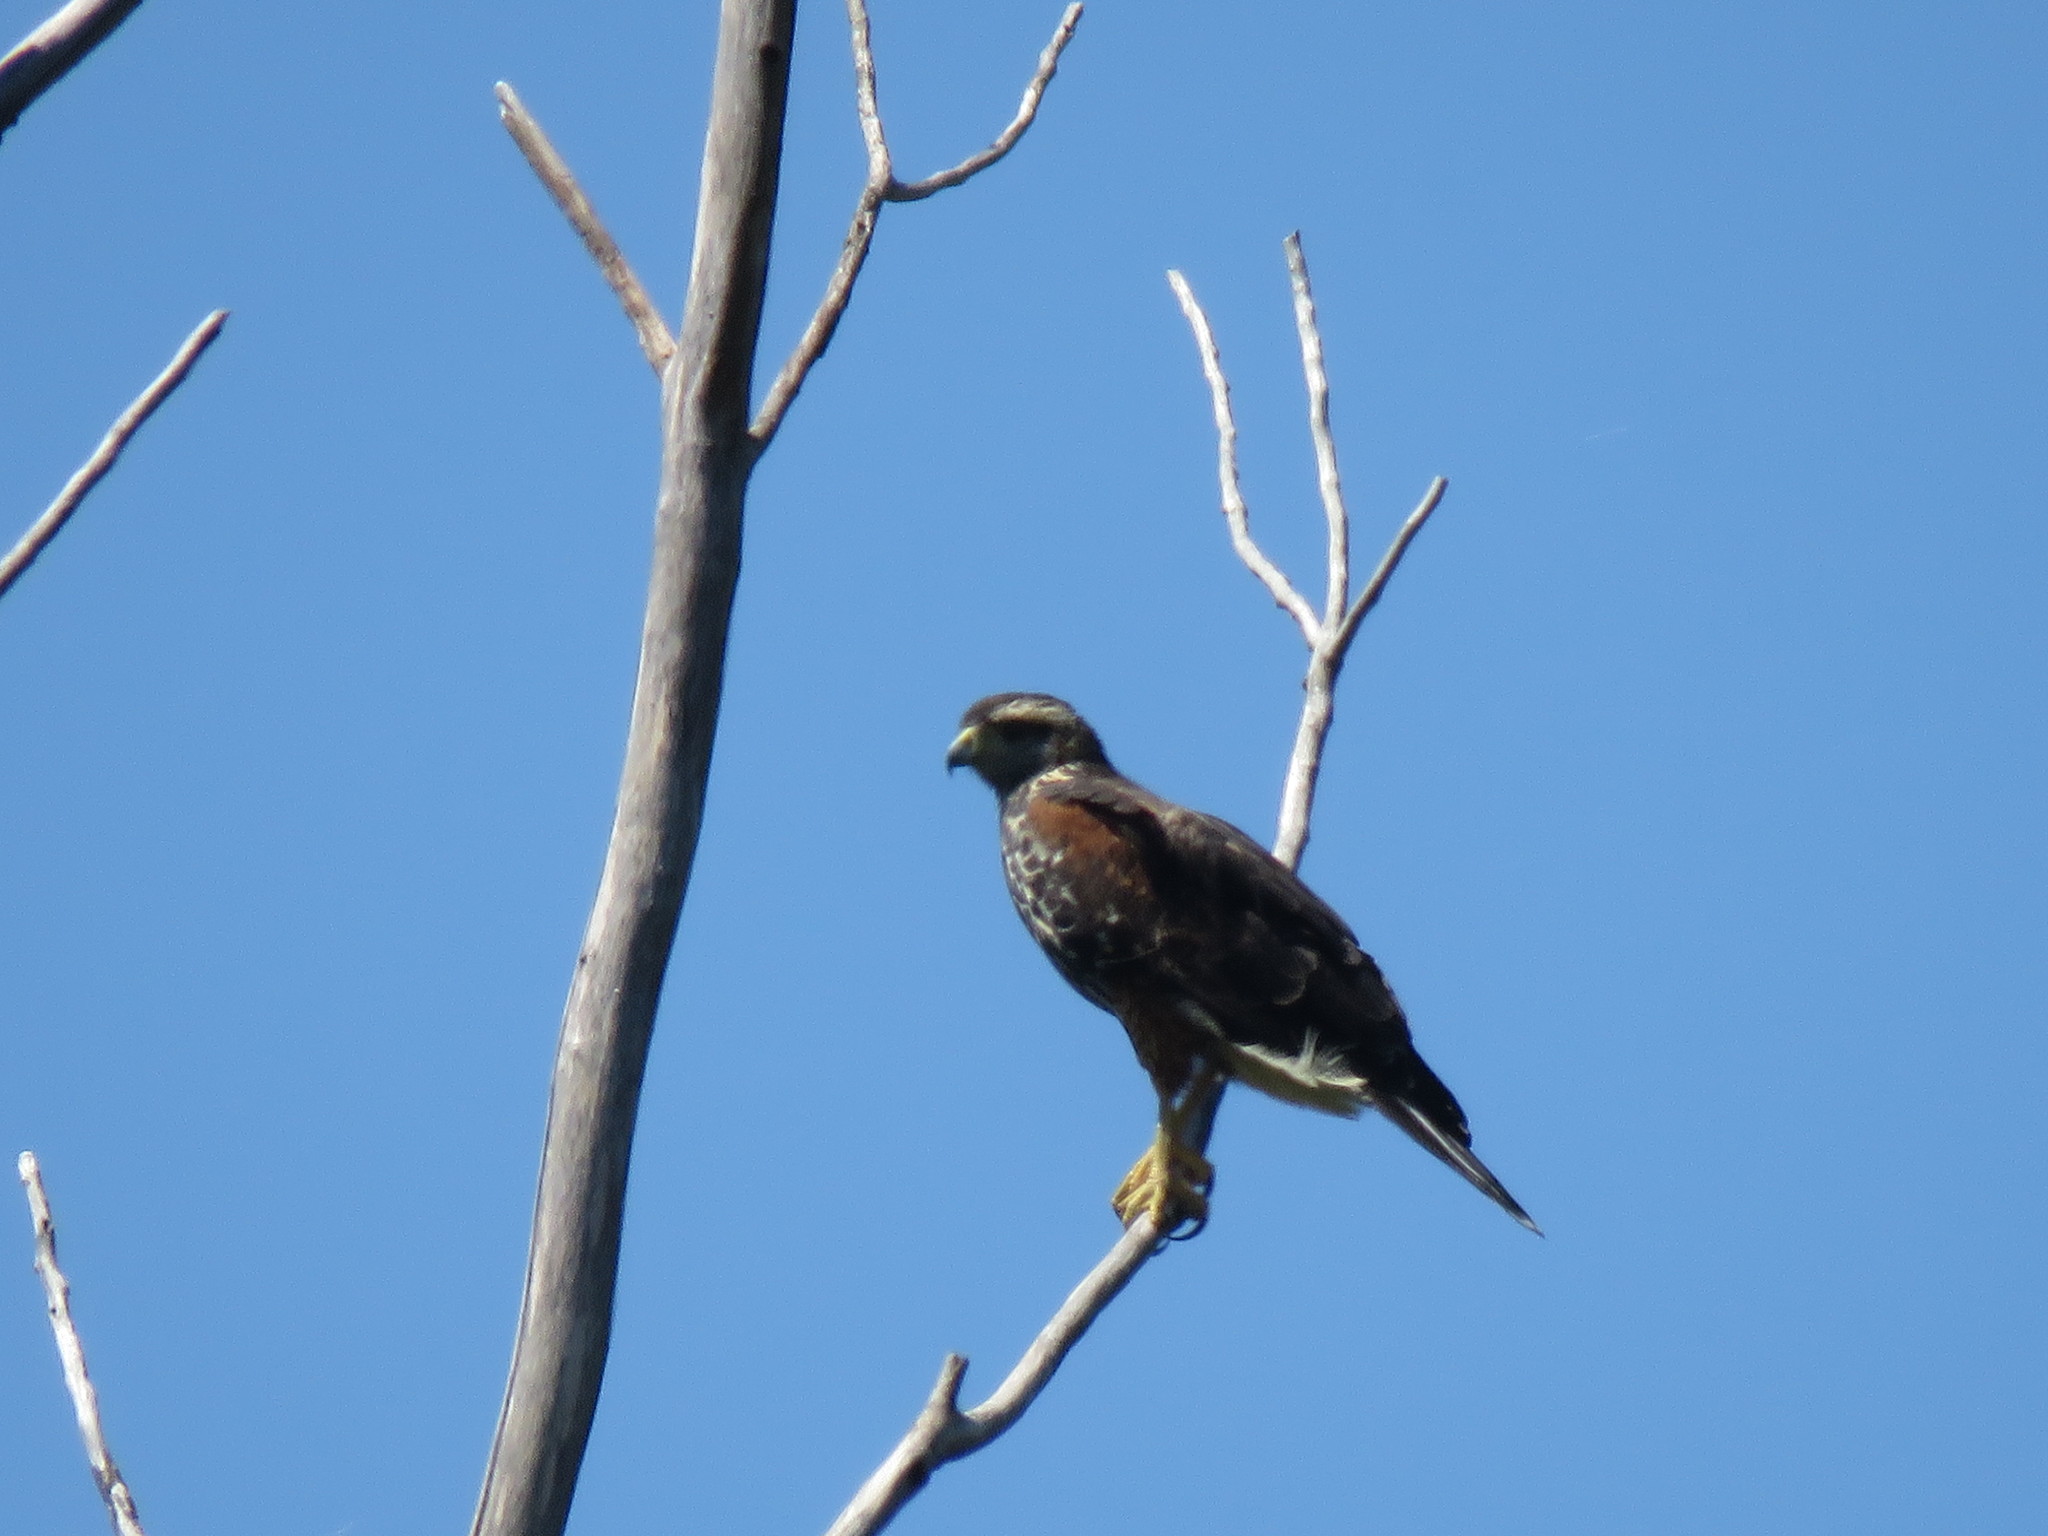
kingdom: Animalia
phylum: Chordata
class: Aves
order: Accipitriformes
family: Accipitridae
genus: Parabuteo
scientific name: Parabuteo unicinctus
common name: Harris's hawk
